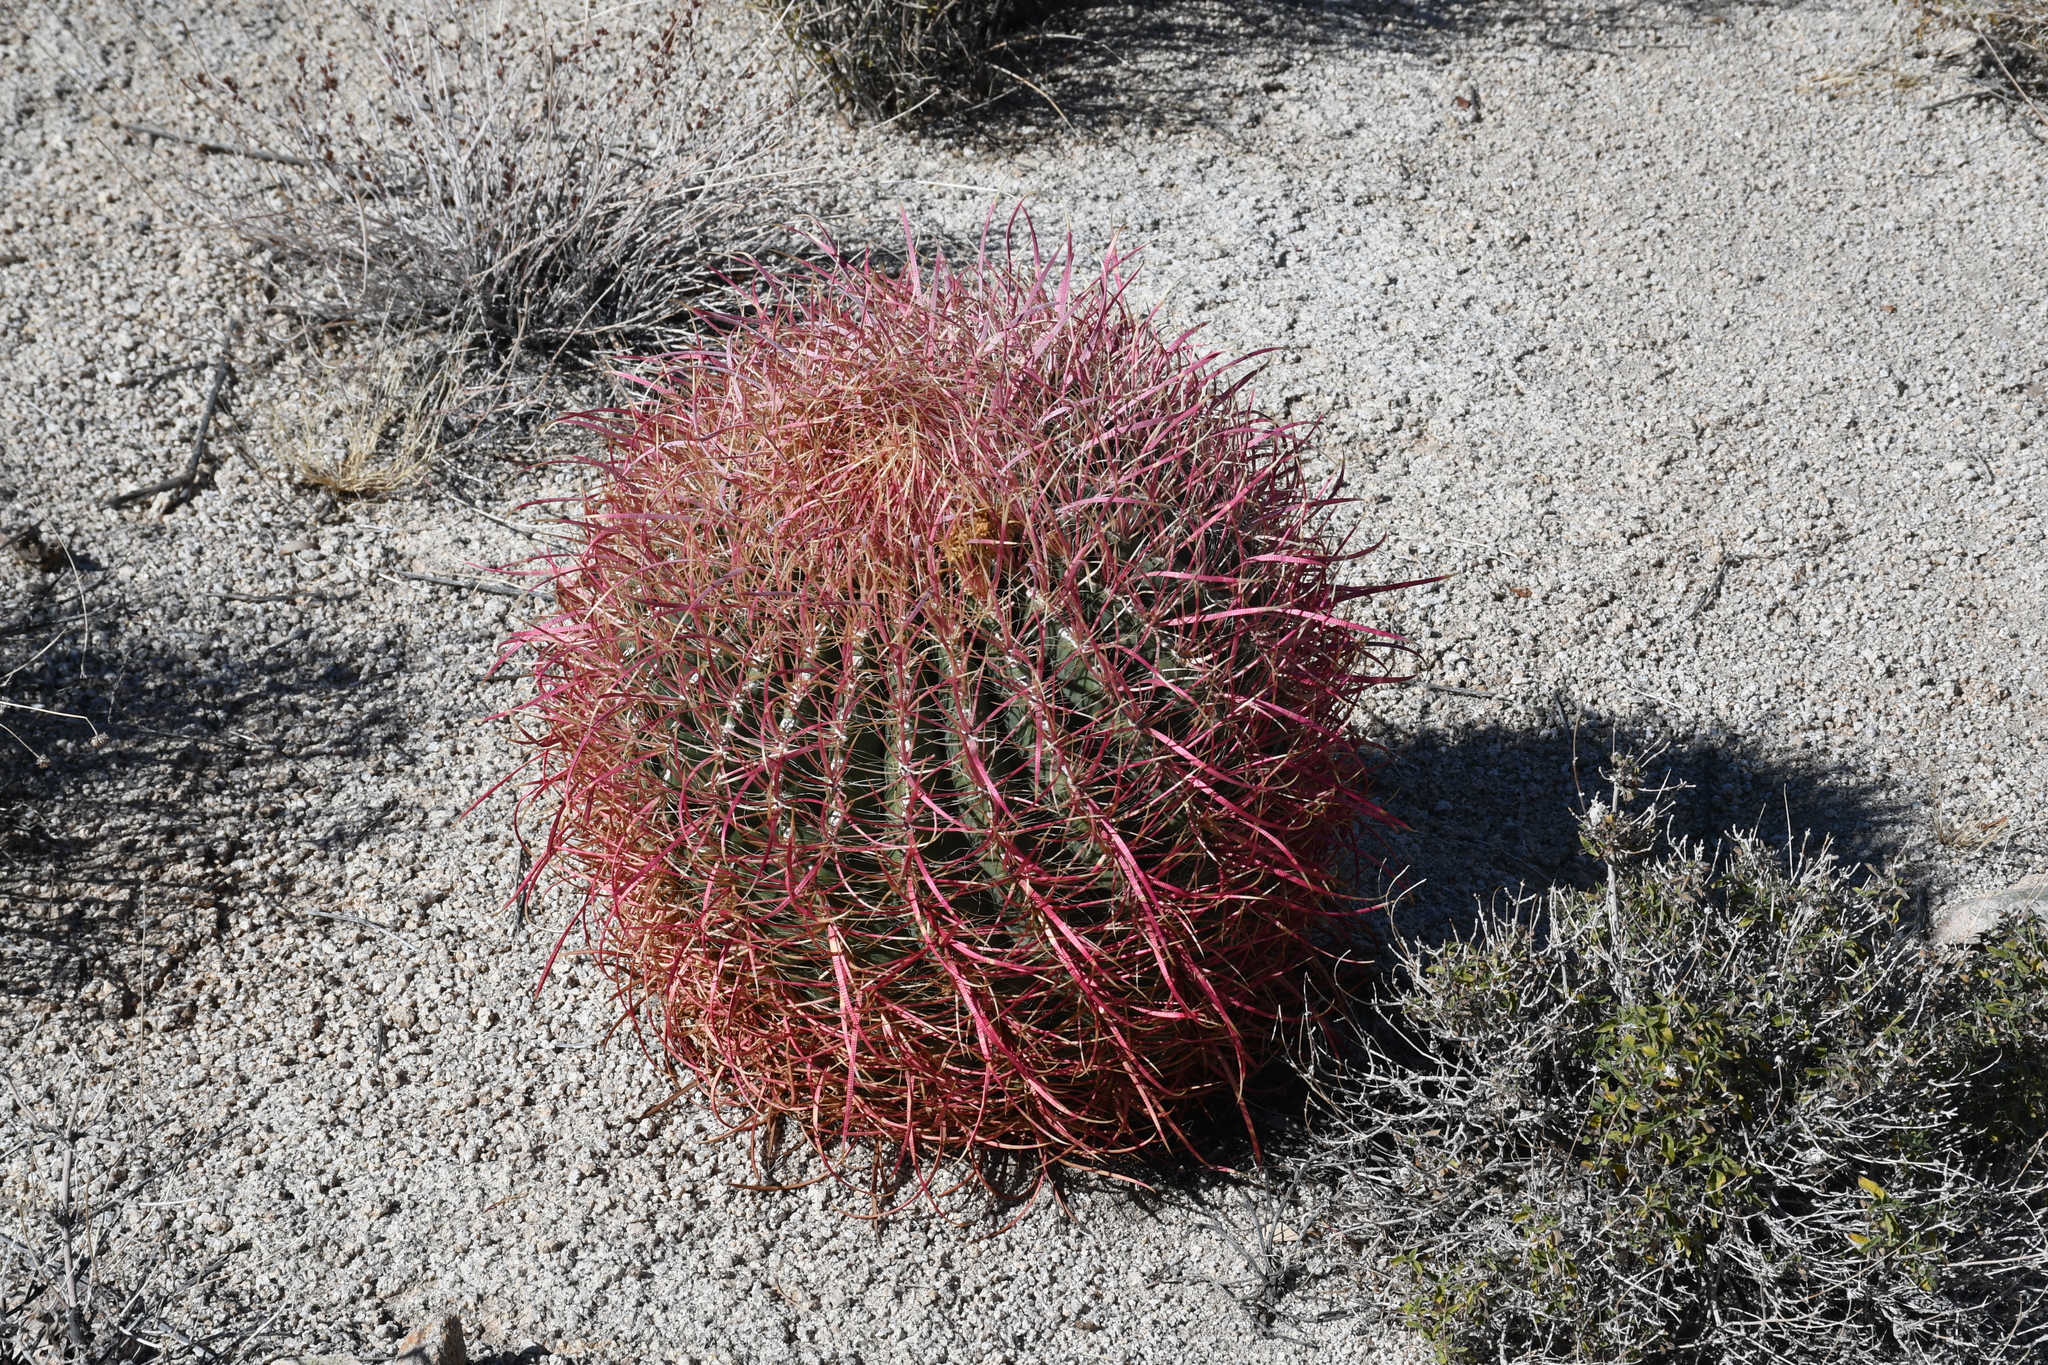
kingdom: Plantae
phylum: Tracheophyta
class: Magnoliopsida
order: Caryophyllales
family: Cactaceae
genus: Ferocactus
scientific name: Ferocactus cylindraceus
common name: California barrel cactus
